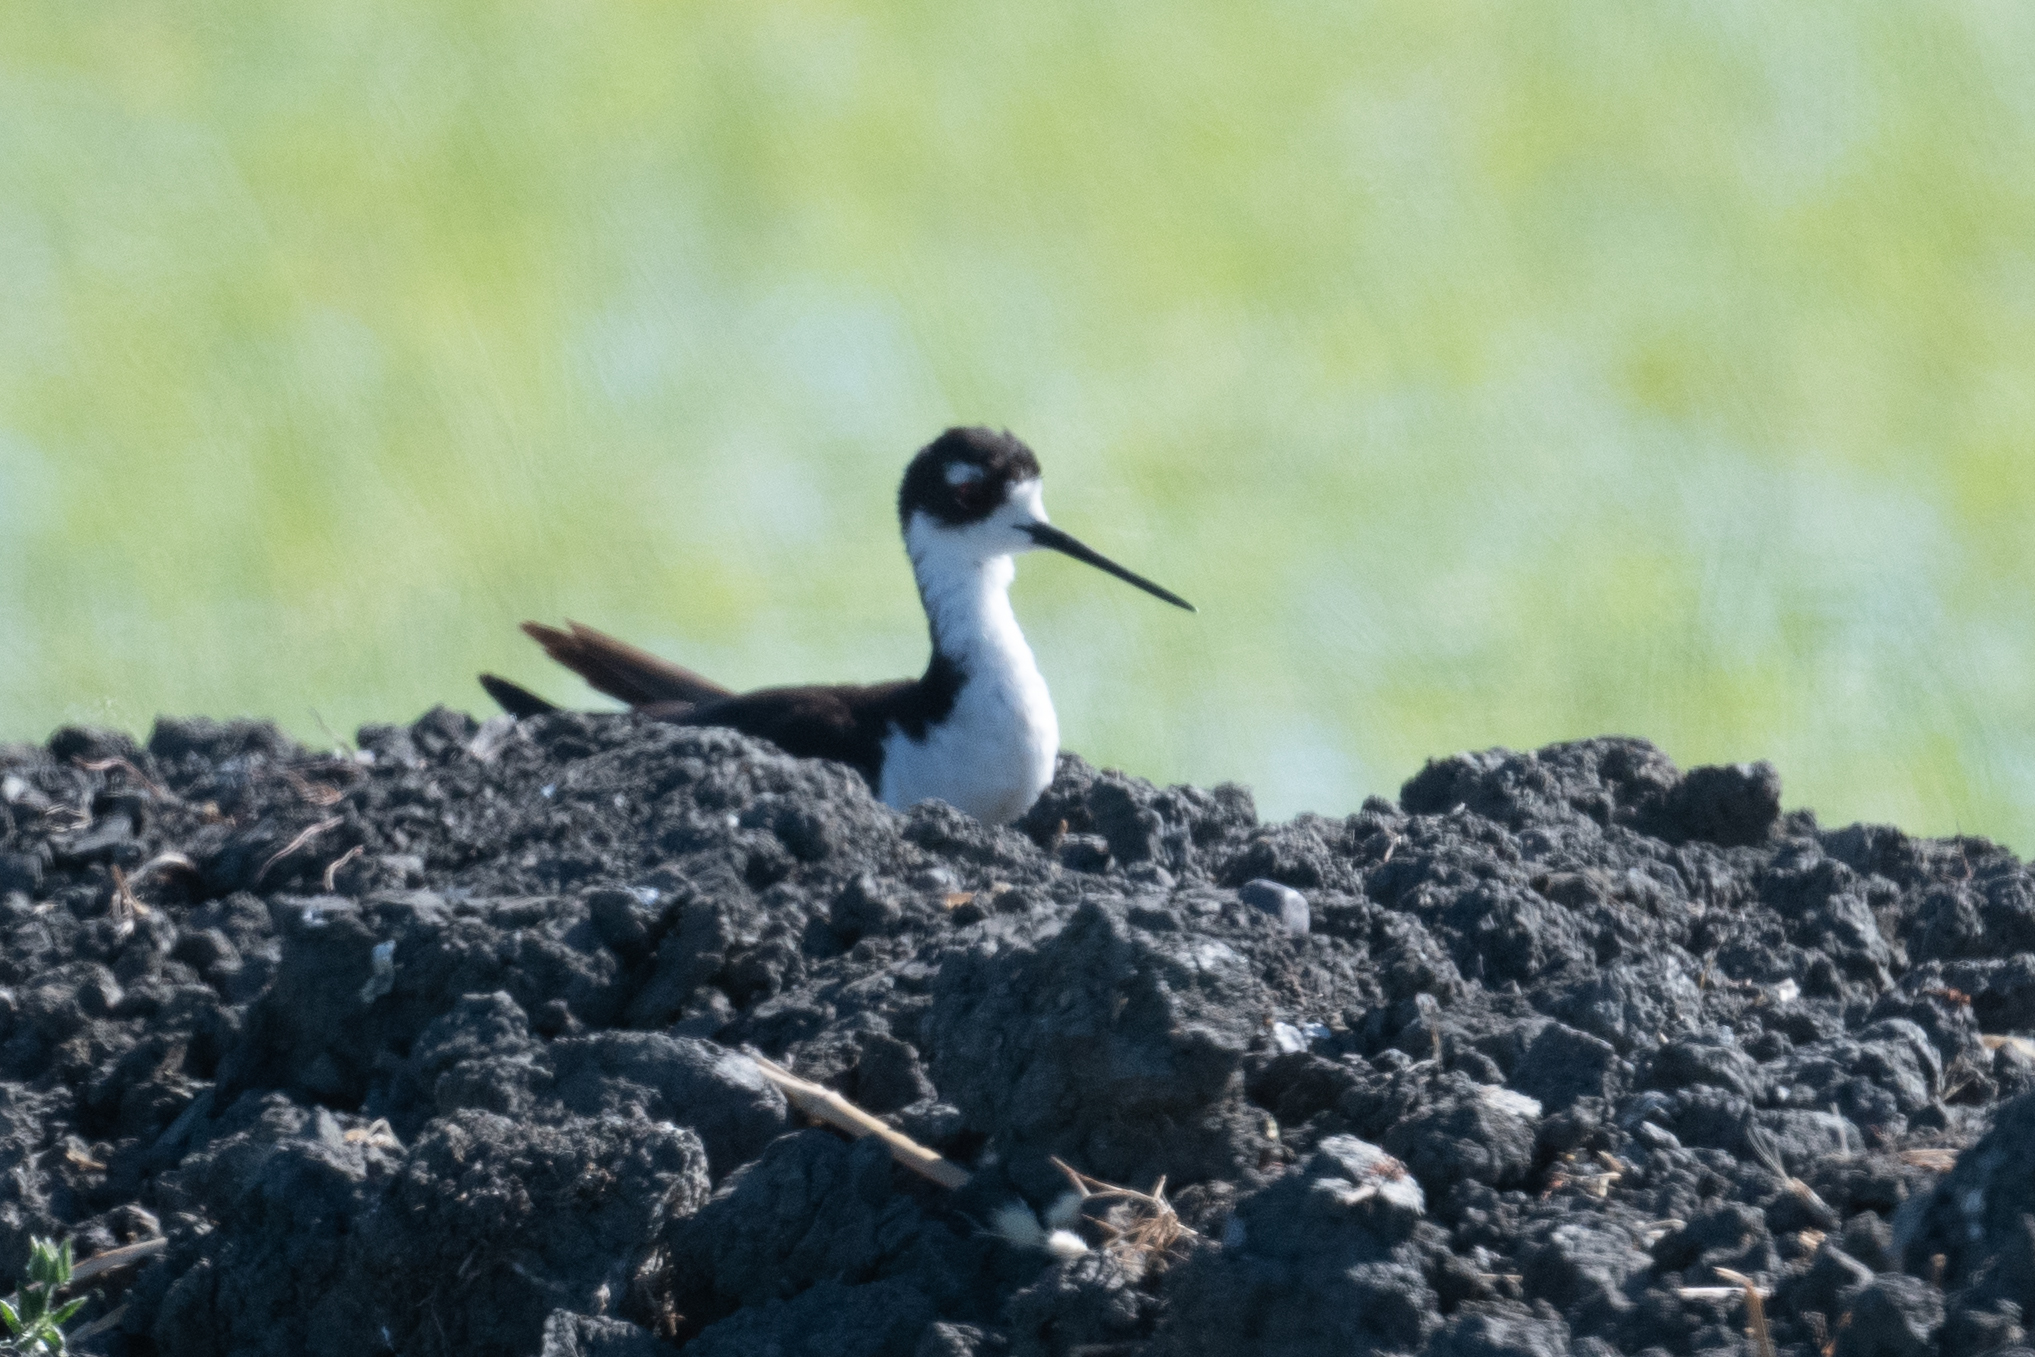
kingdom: Animalia
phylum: Chordata
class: Aves
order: Charadriiformes
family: Recurvirostridae
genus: Himantopus
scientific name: Himantopus mexicanus
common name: Black-necked stilt
